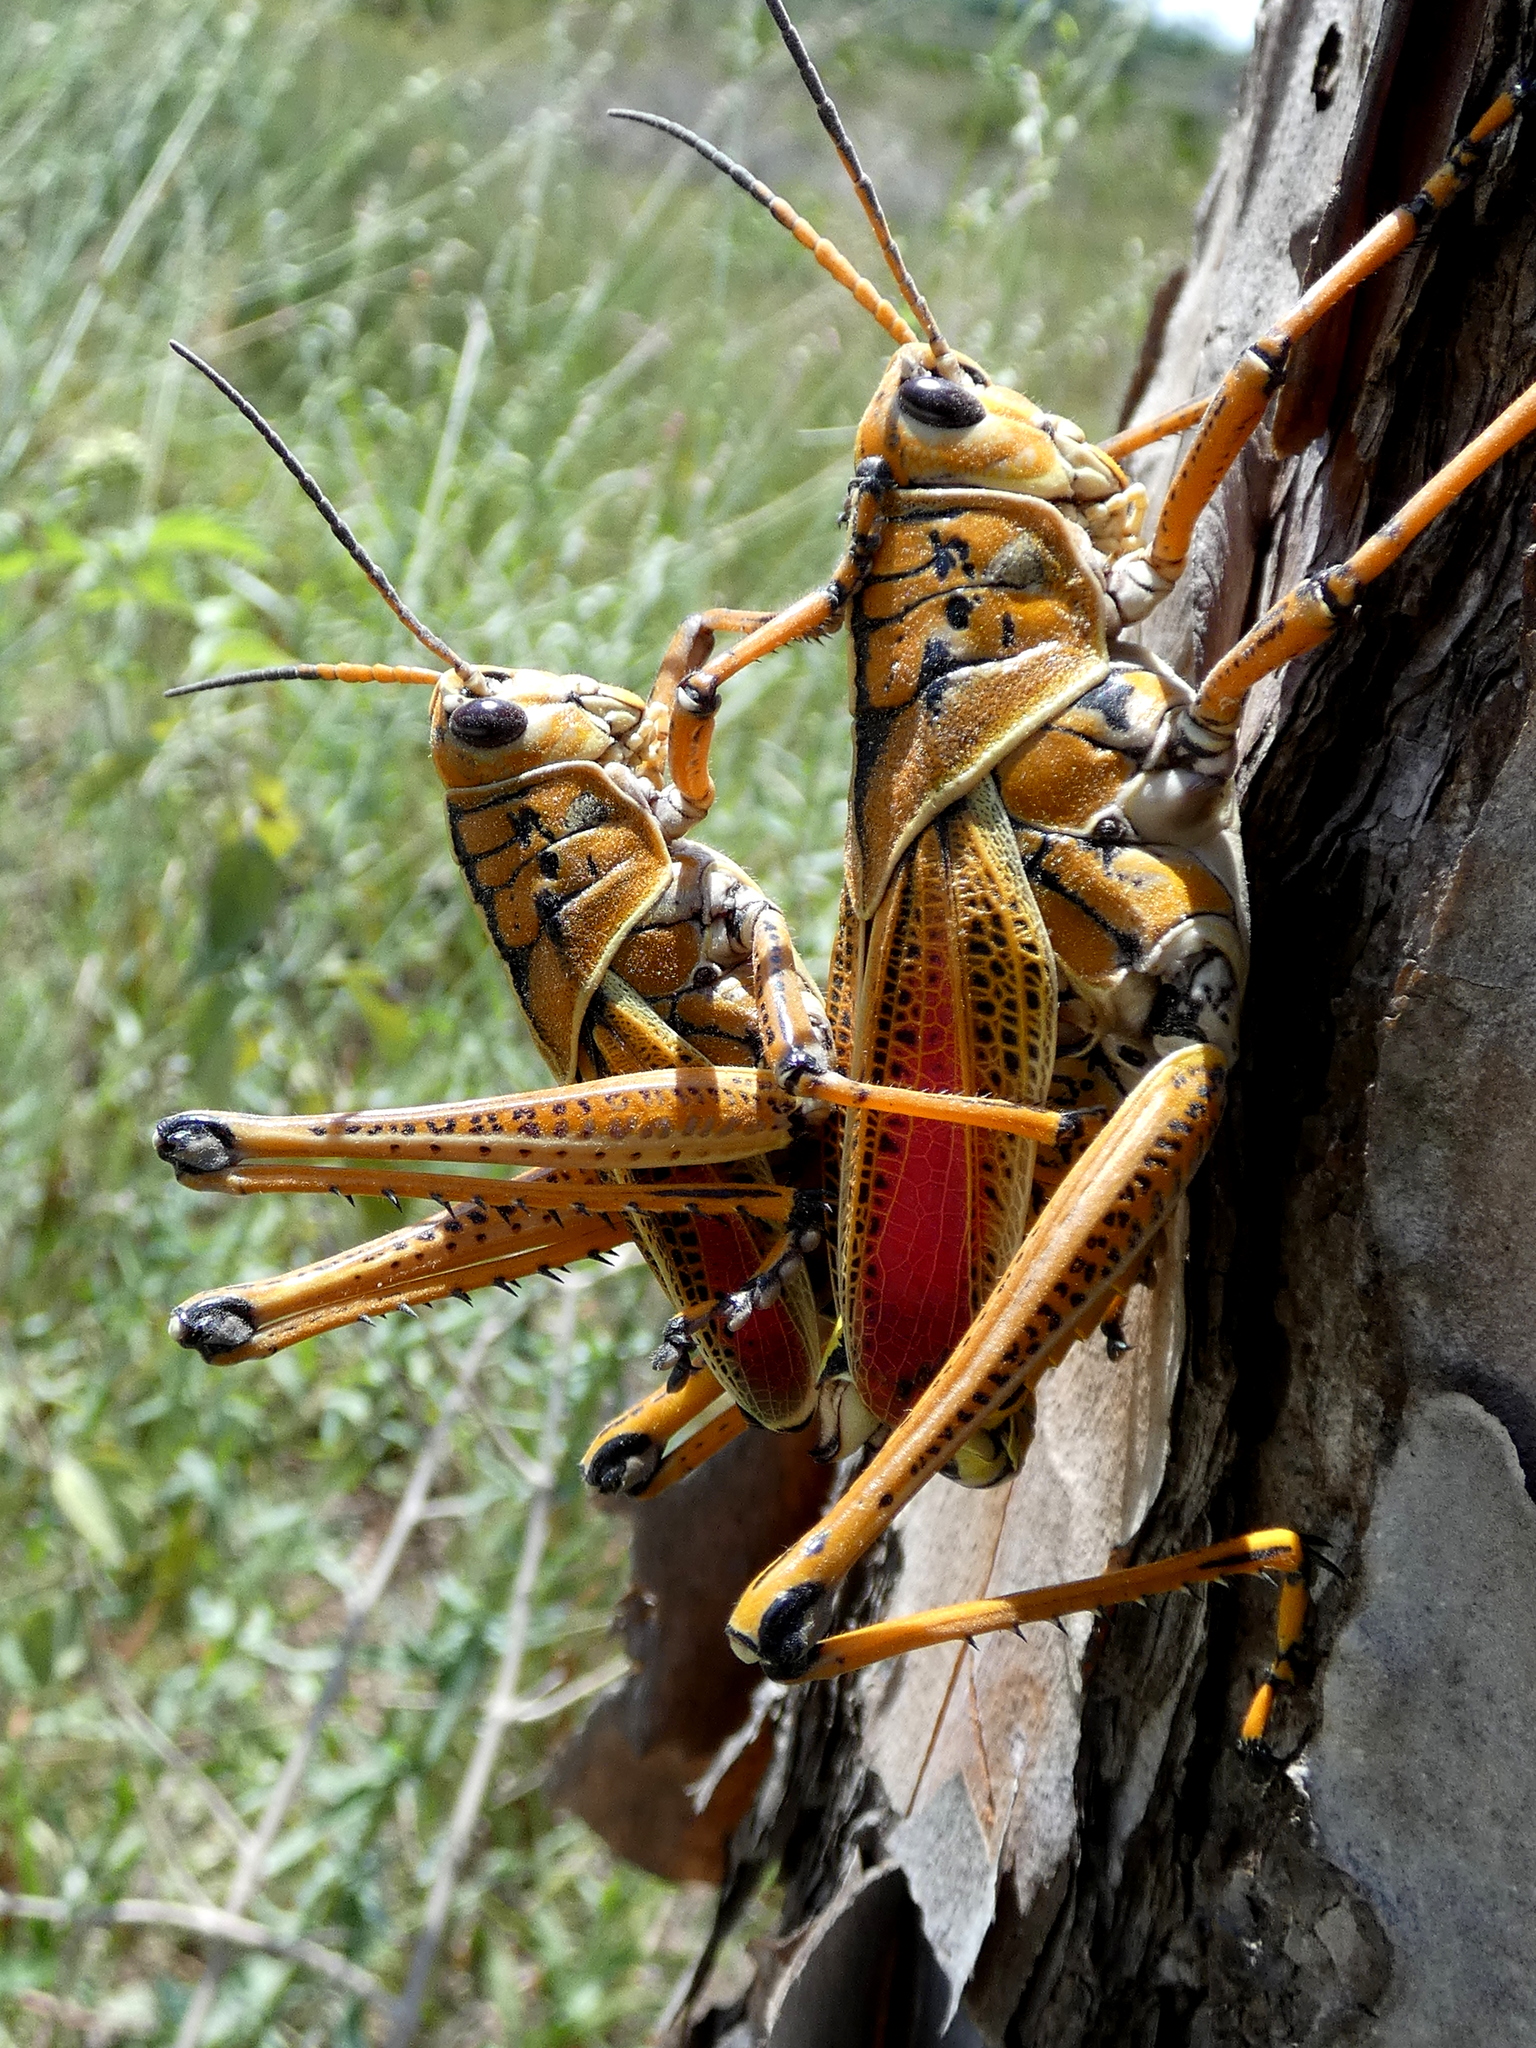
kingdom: Animalia
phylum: Arthropoda
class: Insecta
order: Orthoptera
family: Romaleidae
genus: Romalea
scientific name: Romalea microptera
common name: Eastern lubber grasshopper
